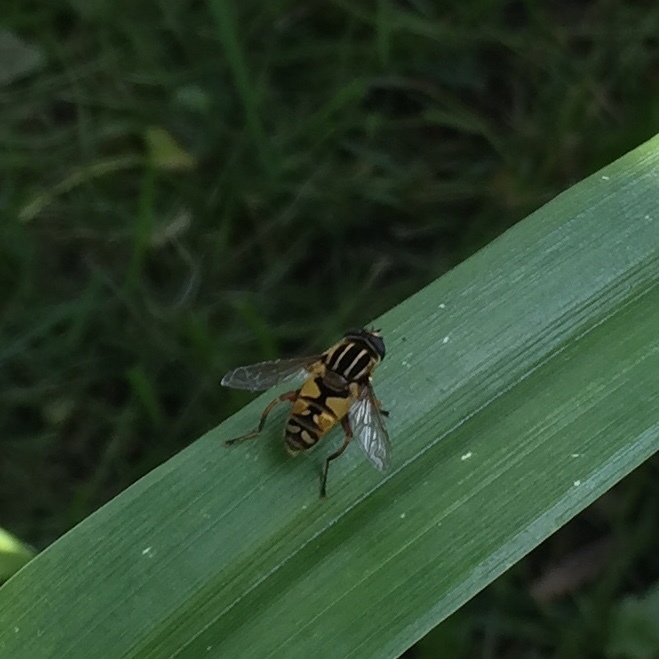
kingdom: Animalia
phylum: Arthropoda
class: Insecta
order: Diptera
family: Syrphidae
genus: Helophilus
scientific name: Helophilus pendulus
